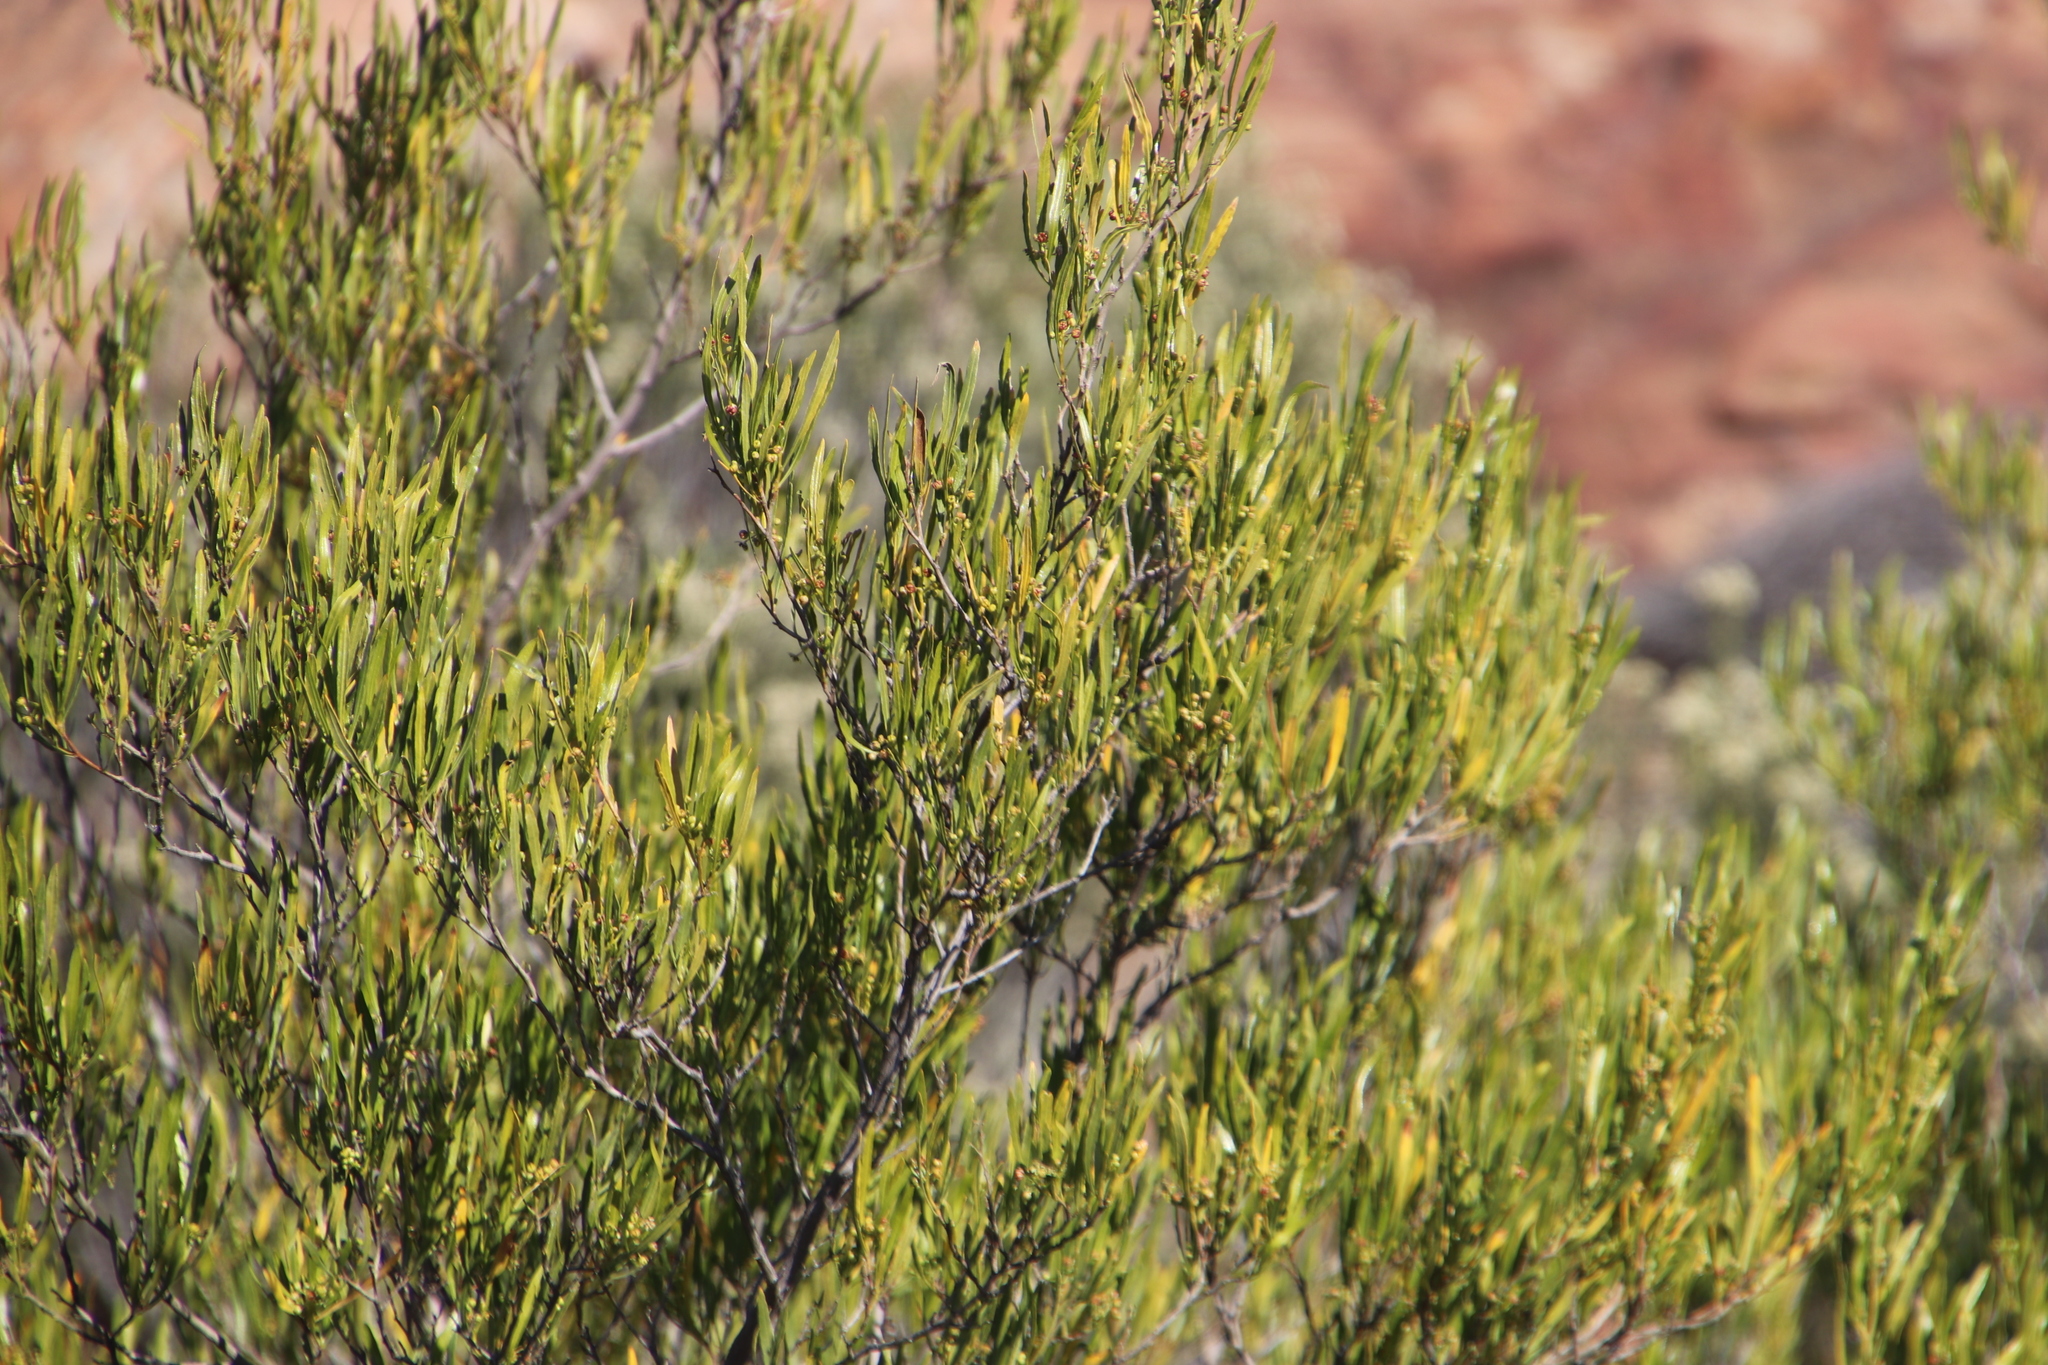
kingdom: Plantae
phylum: Tracheophyta
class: Magnoliopsida
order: Sapindales
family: Sapindaceae
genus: Dodonaea
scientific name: Dodonaea viscosa
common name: Hopbush
